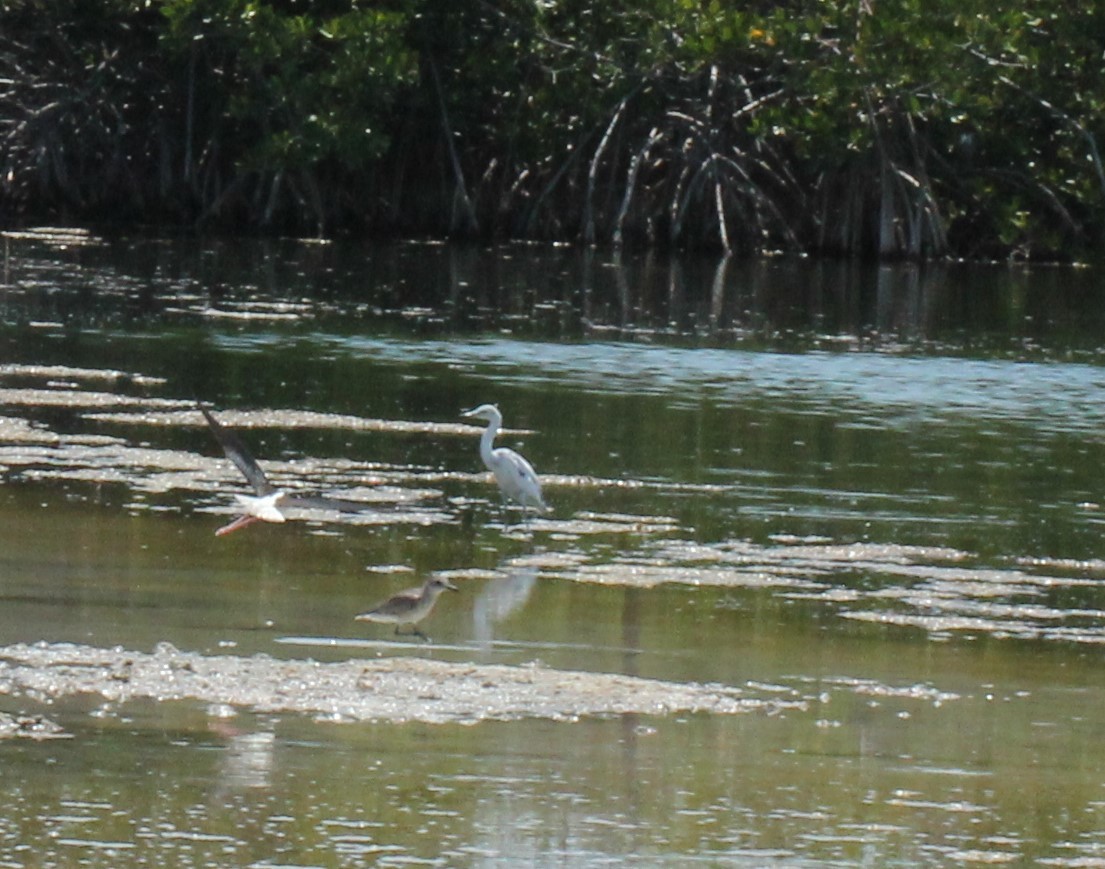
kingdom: Animalia
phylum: Chordata
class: Aves
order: Pelecaniformes
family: Ardeidae
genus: Egretta
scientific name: Egretta caerulea
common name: Little blue heron
